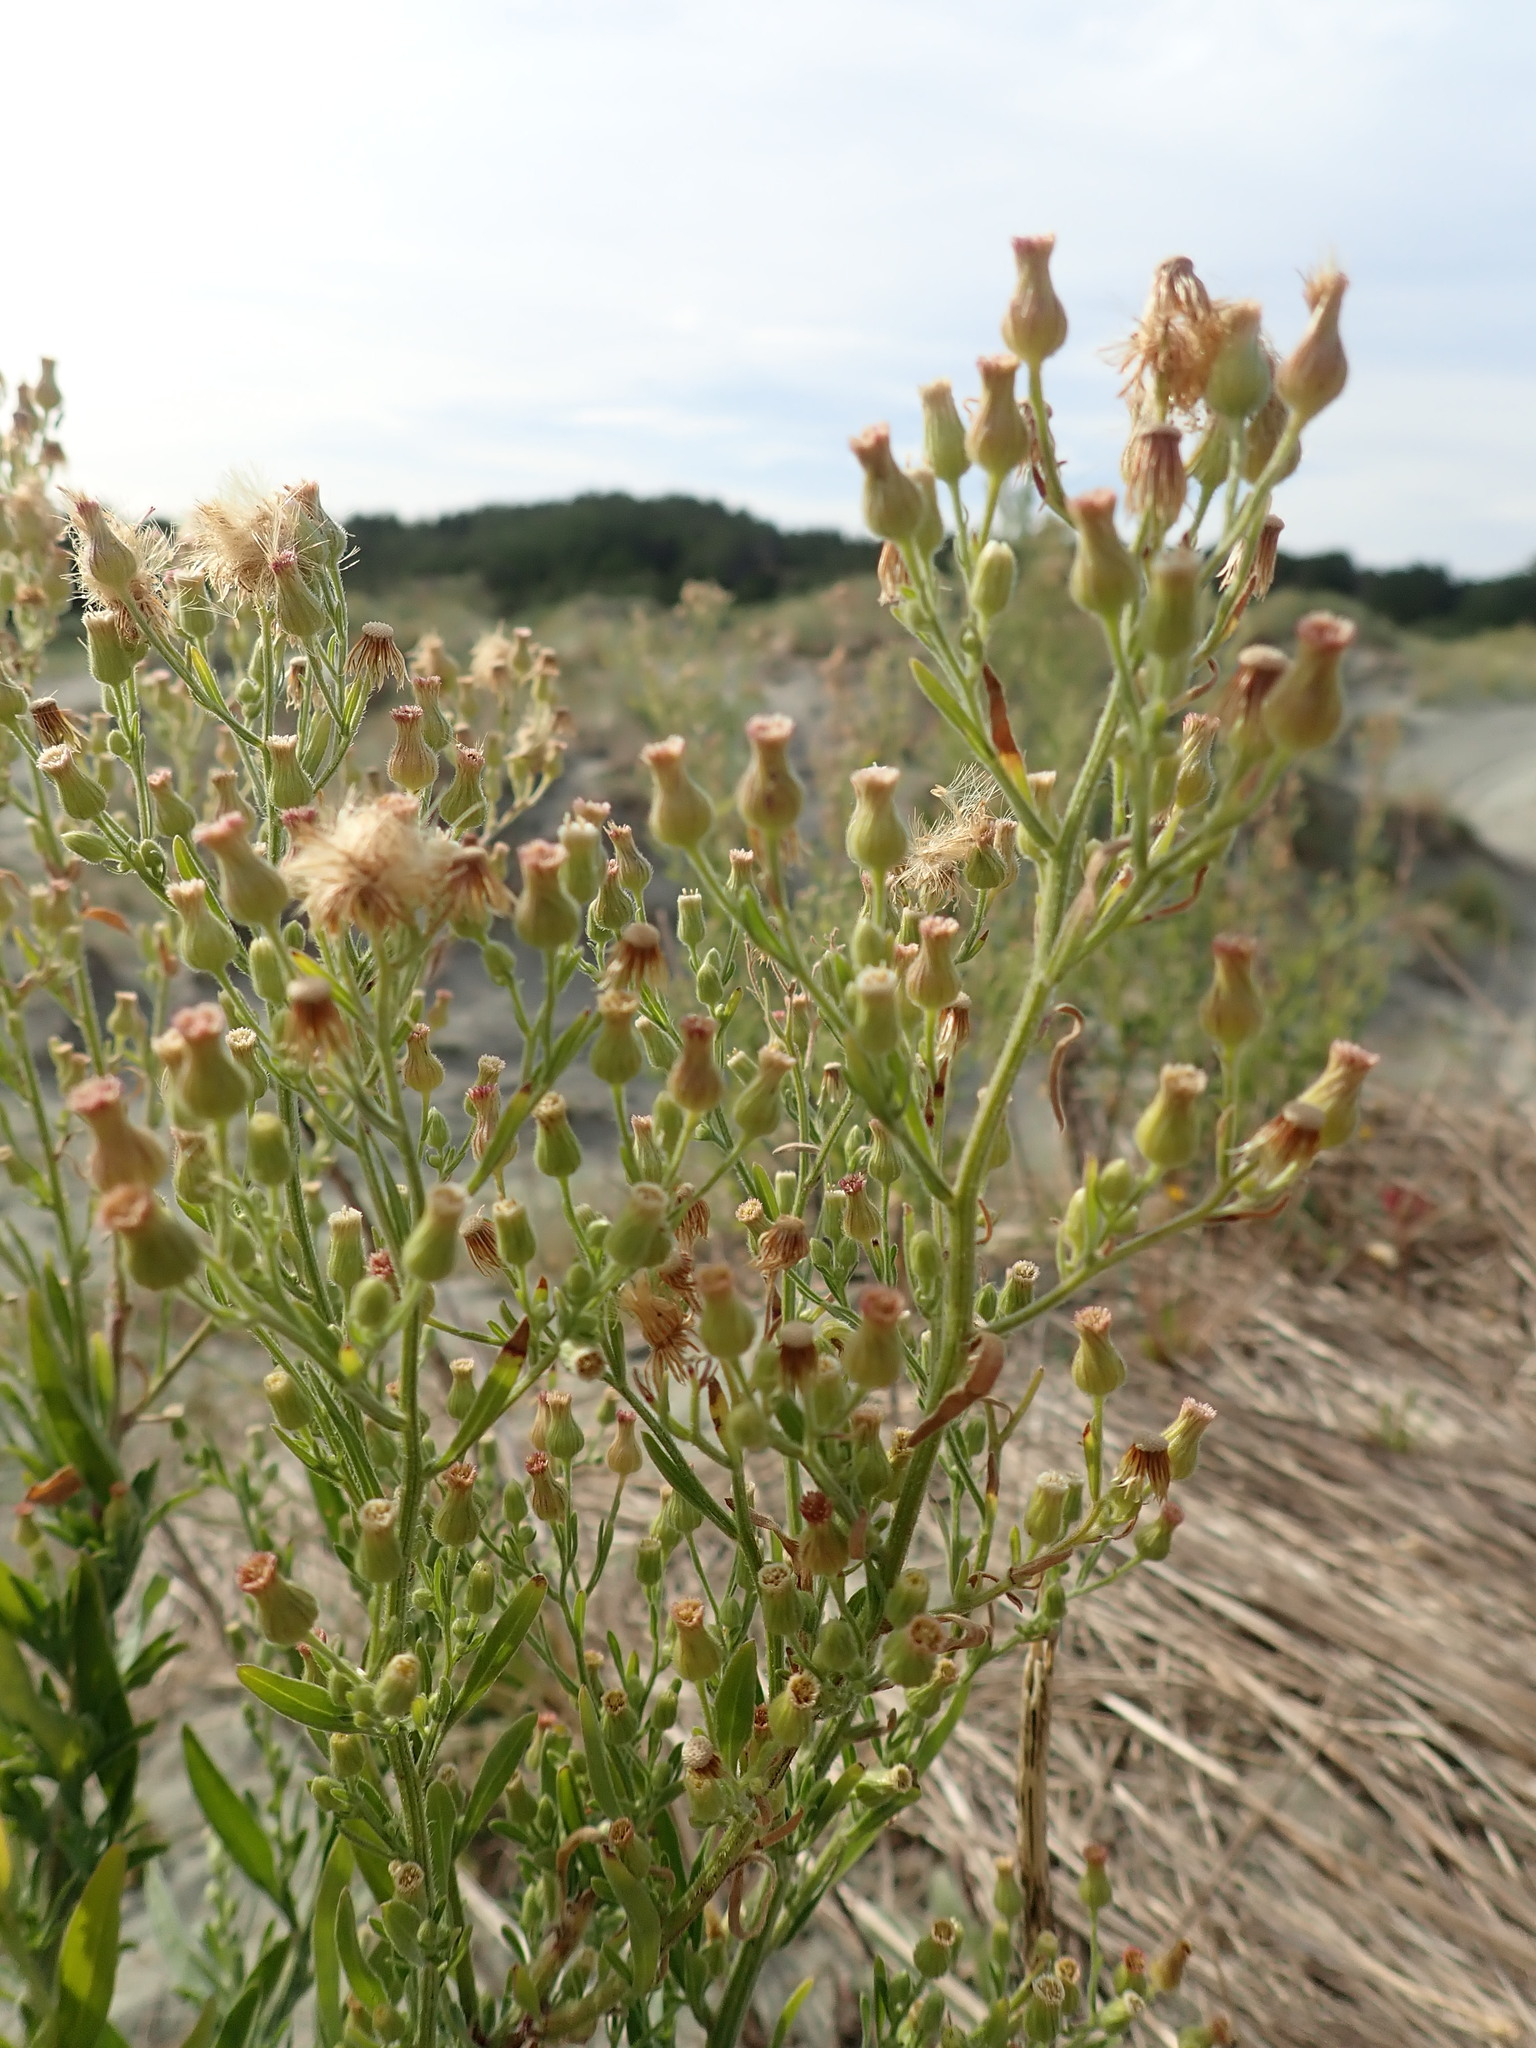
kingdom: Plantae
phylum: Tracheophyta
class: Magnoliopsida
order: Asterales
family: Asteraceae
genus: Erigeron
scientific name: Erigeron sumatrensis
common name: Daisy
